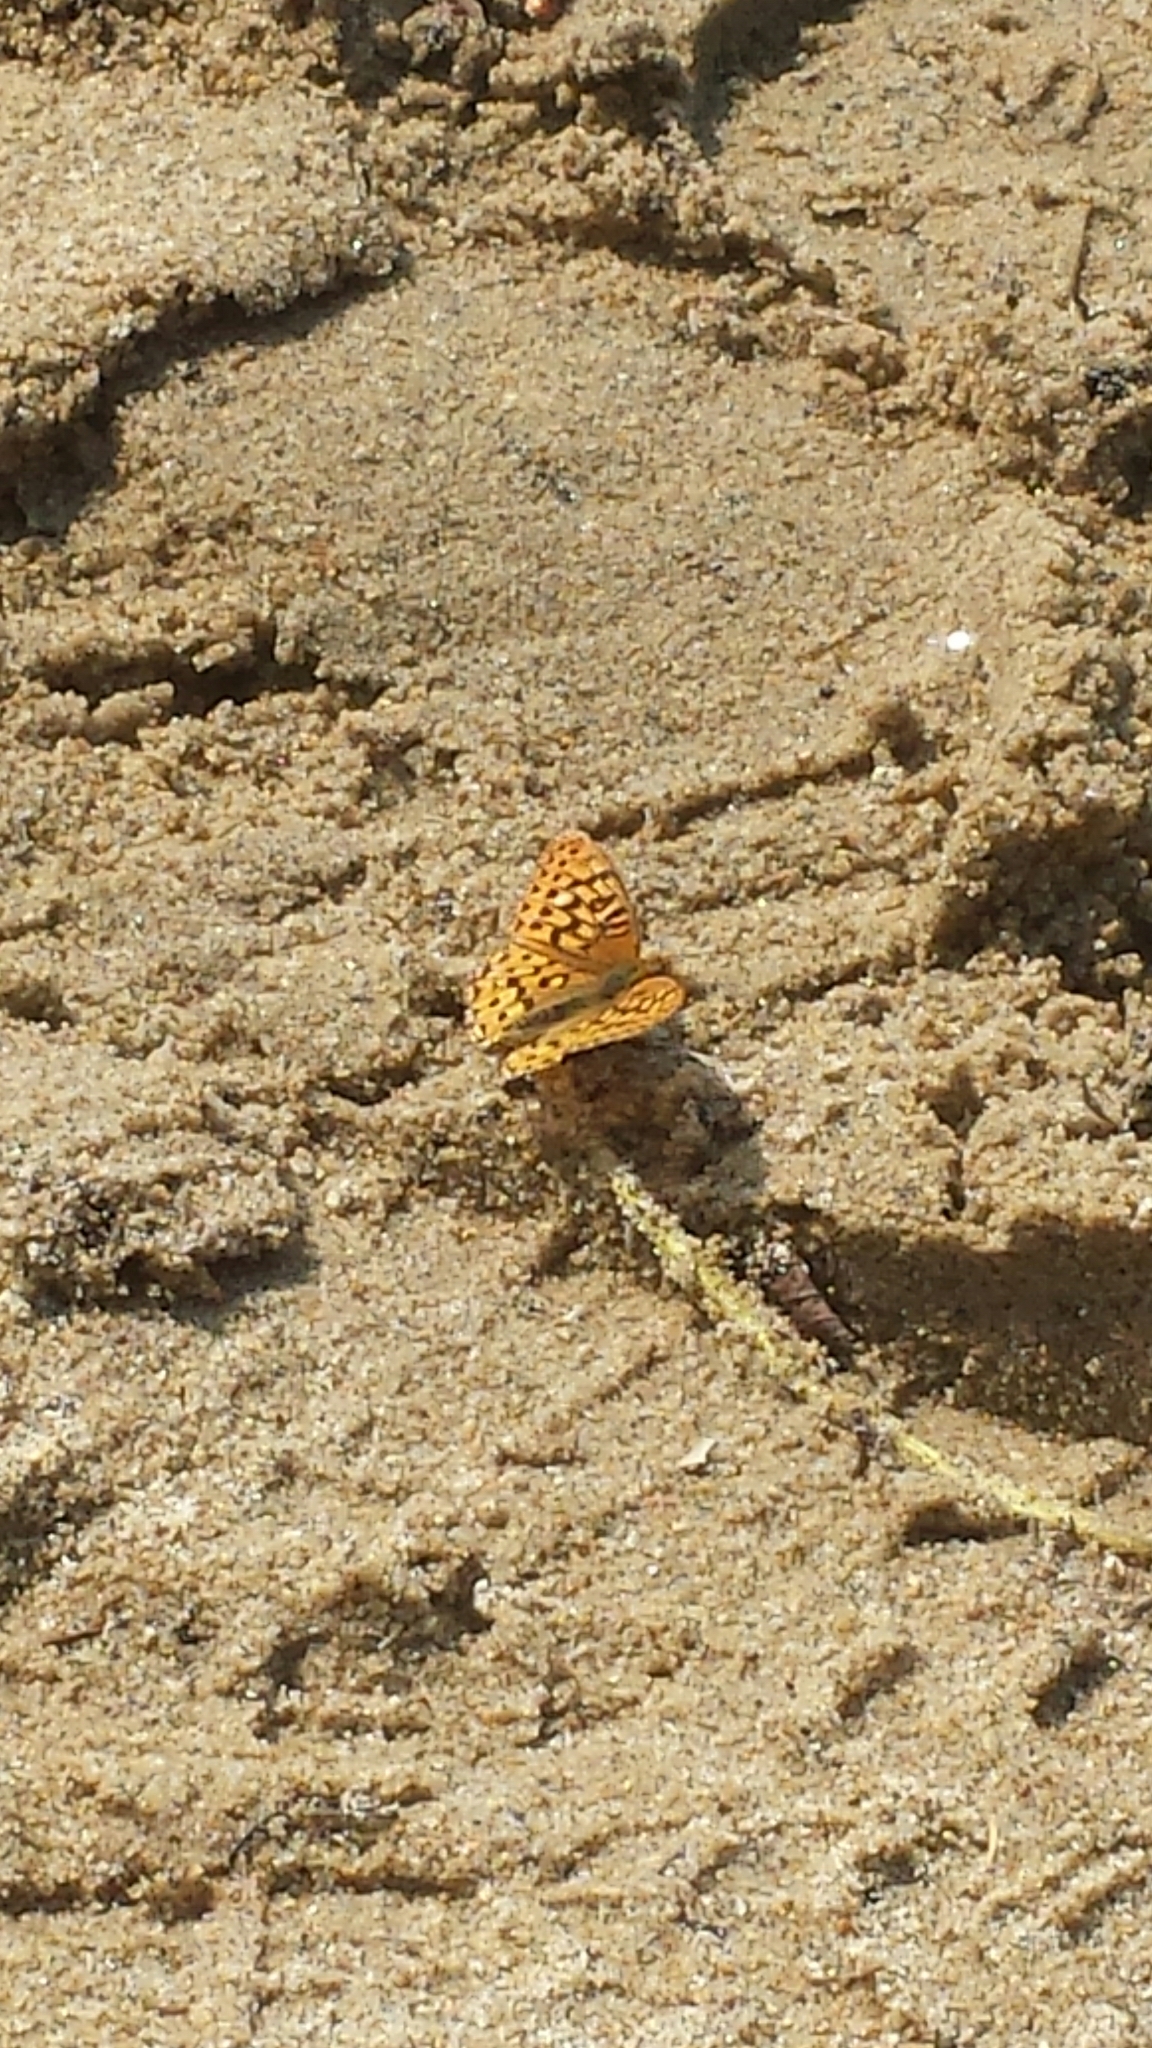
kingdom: Animalia
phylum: Arthropoda
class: Insecta
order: Lepidoptera
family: Nymphalidae
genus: Speyeria
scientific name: Speyeria mormonia
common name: Mormon fritillary
